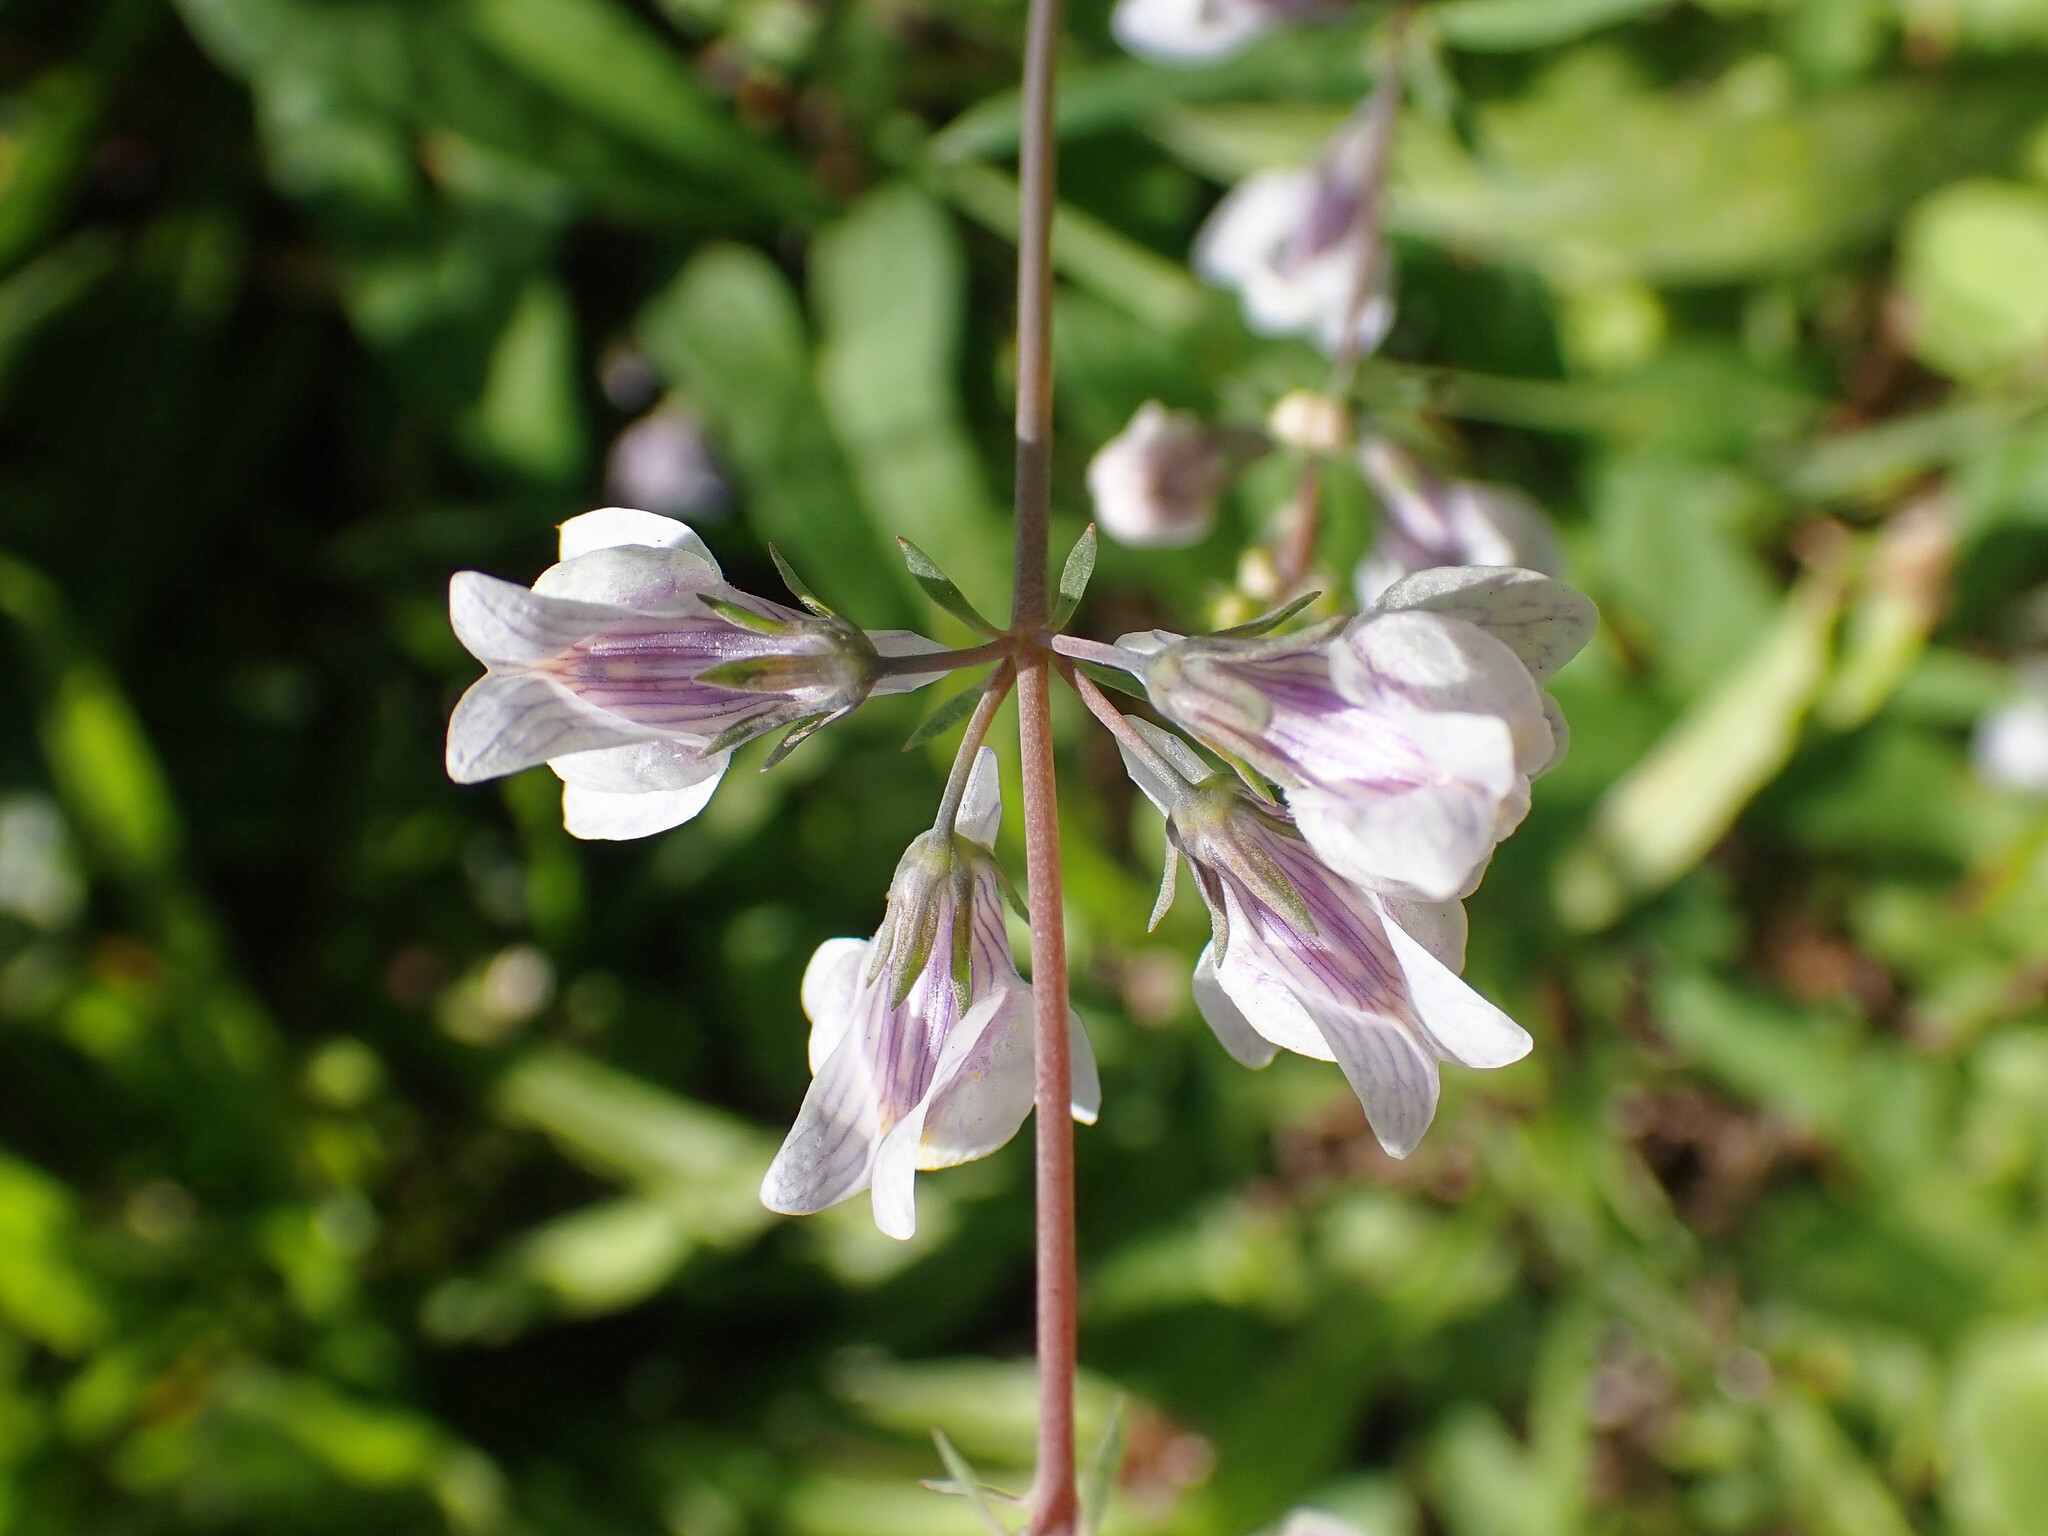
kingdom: Plantae
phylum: Tracheophyta
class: Magnoliopsida
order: Lamiales
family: Plantaginaceae
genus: Linaria
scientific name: Linaria repens
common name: Pale toadflax
